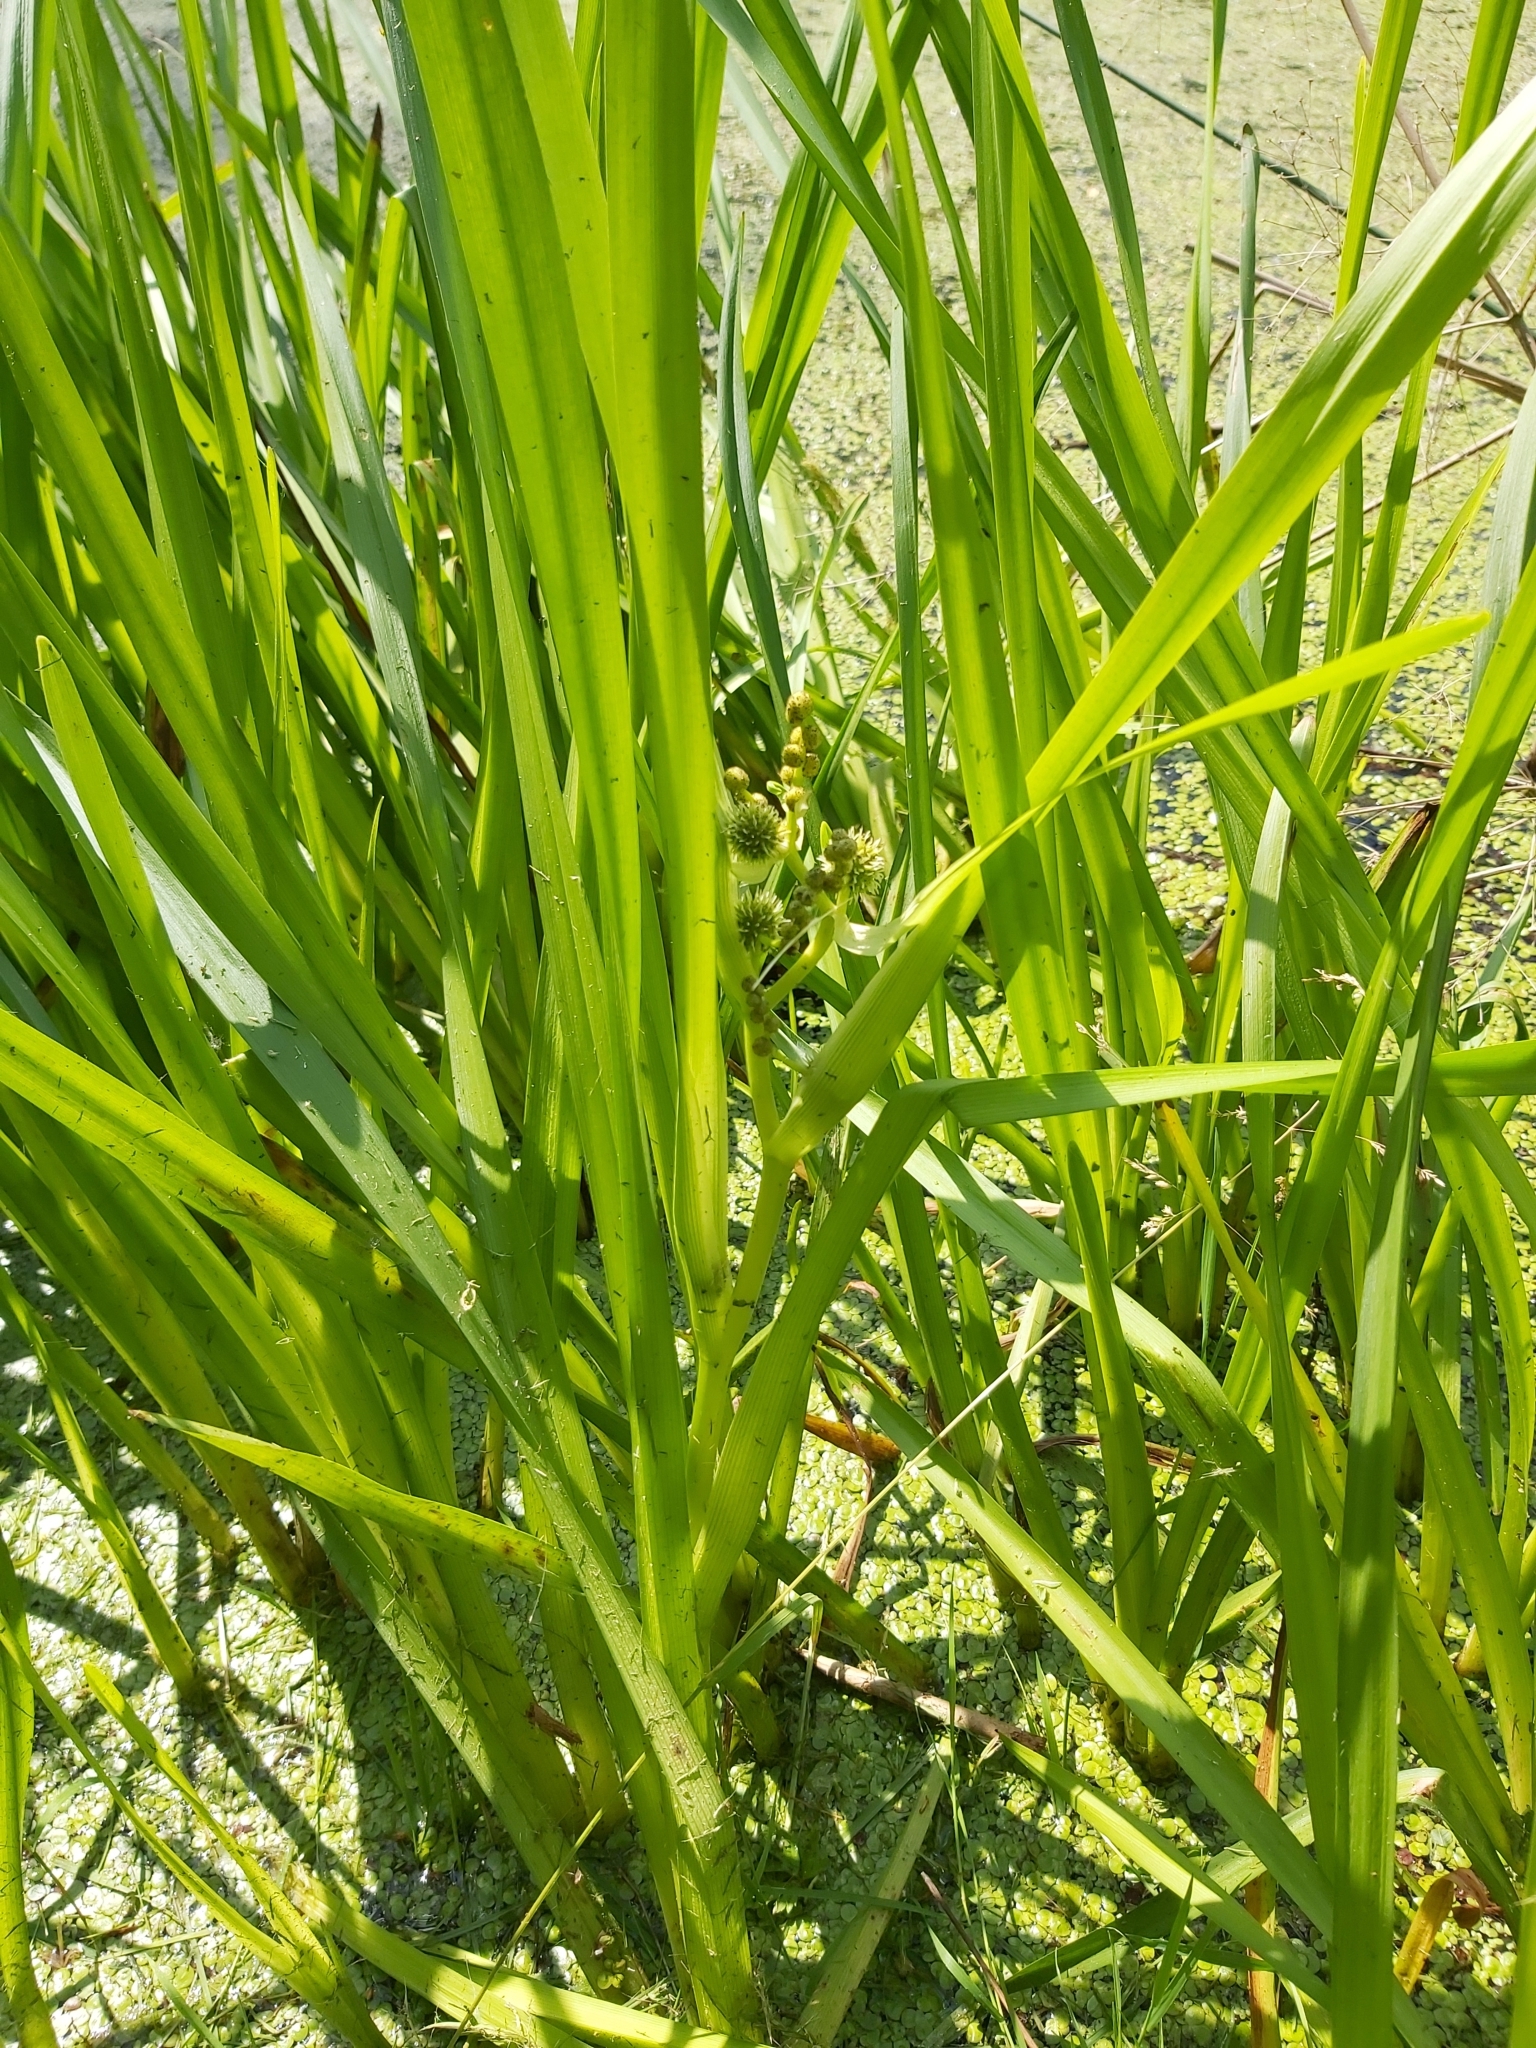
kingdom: Plantae
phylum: Tracheophyta
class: Liliopsida
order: Poales
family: Typhaceae
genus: Sparganium
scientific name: Sparganium erectum
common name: Branched bur-reed
